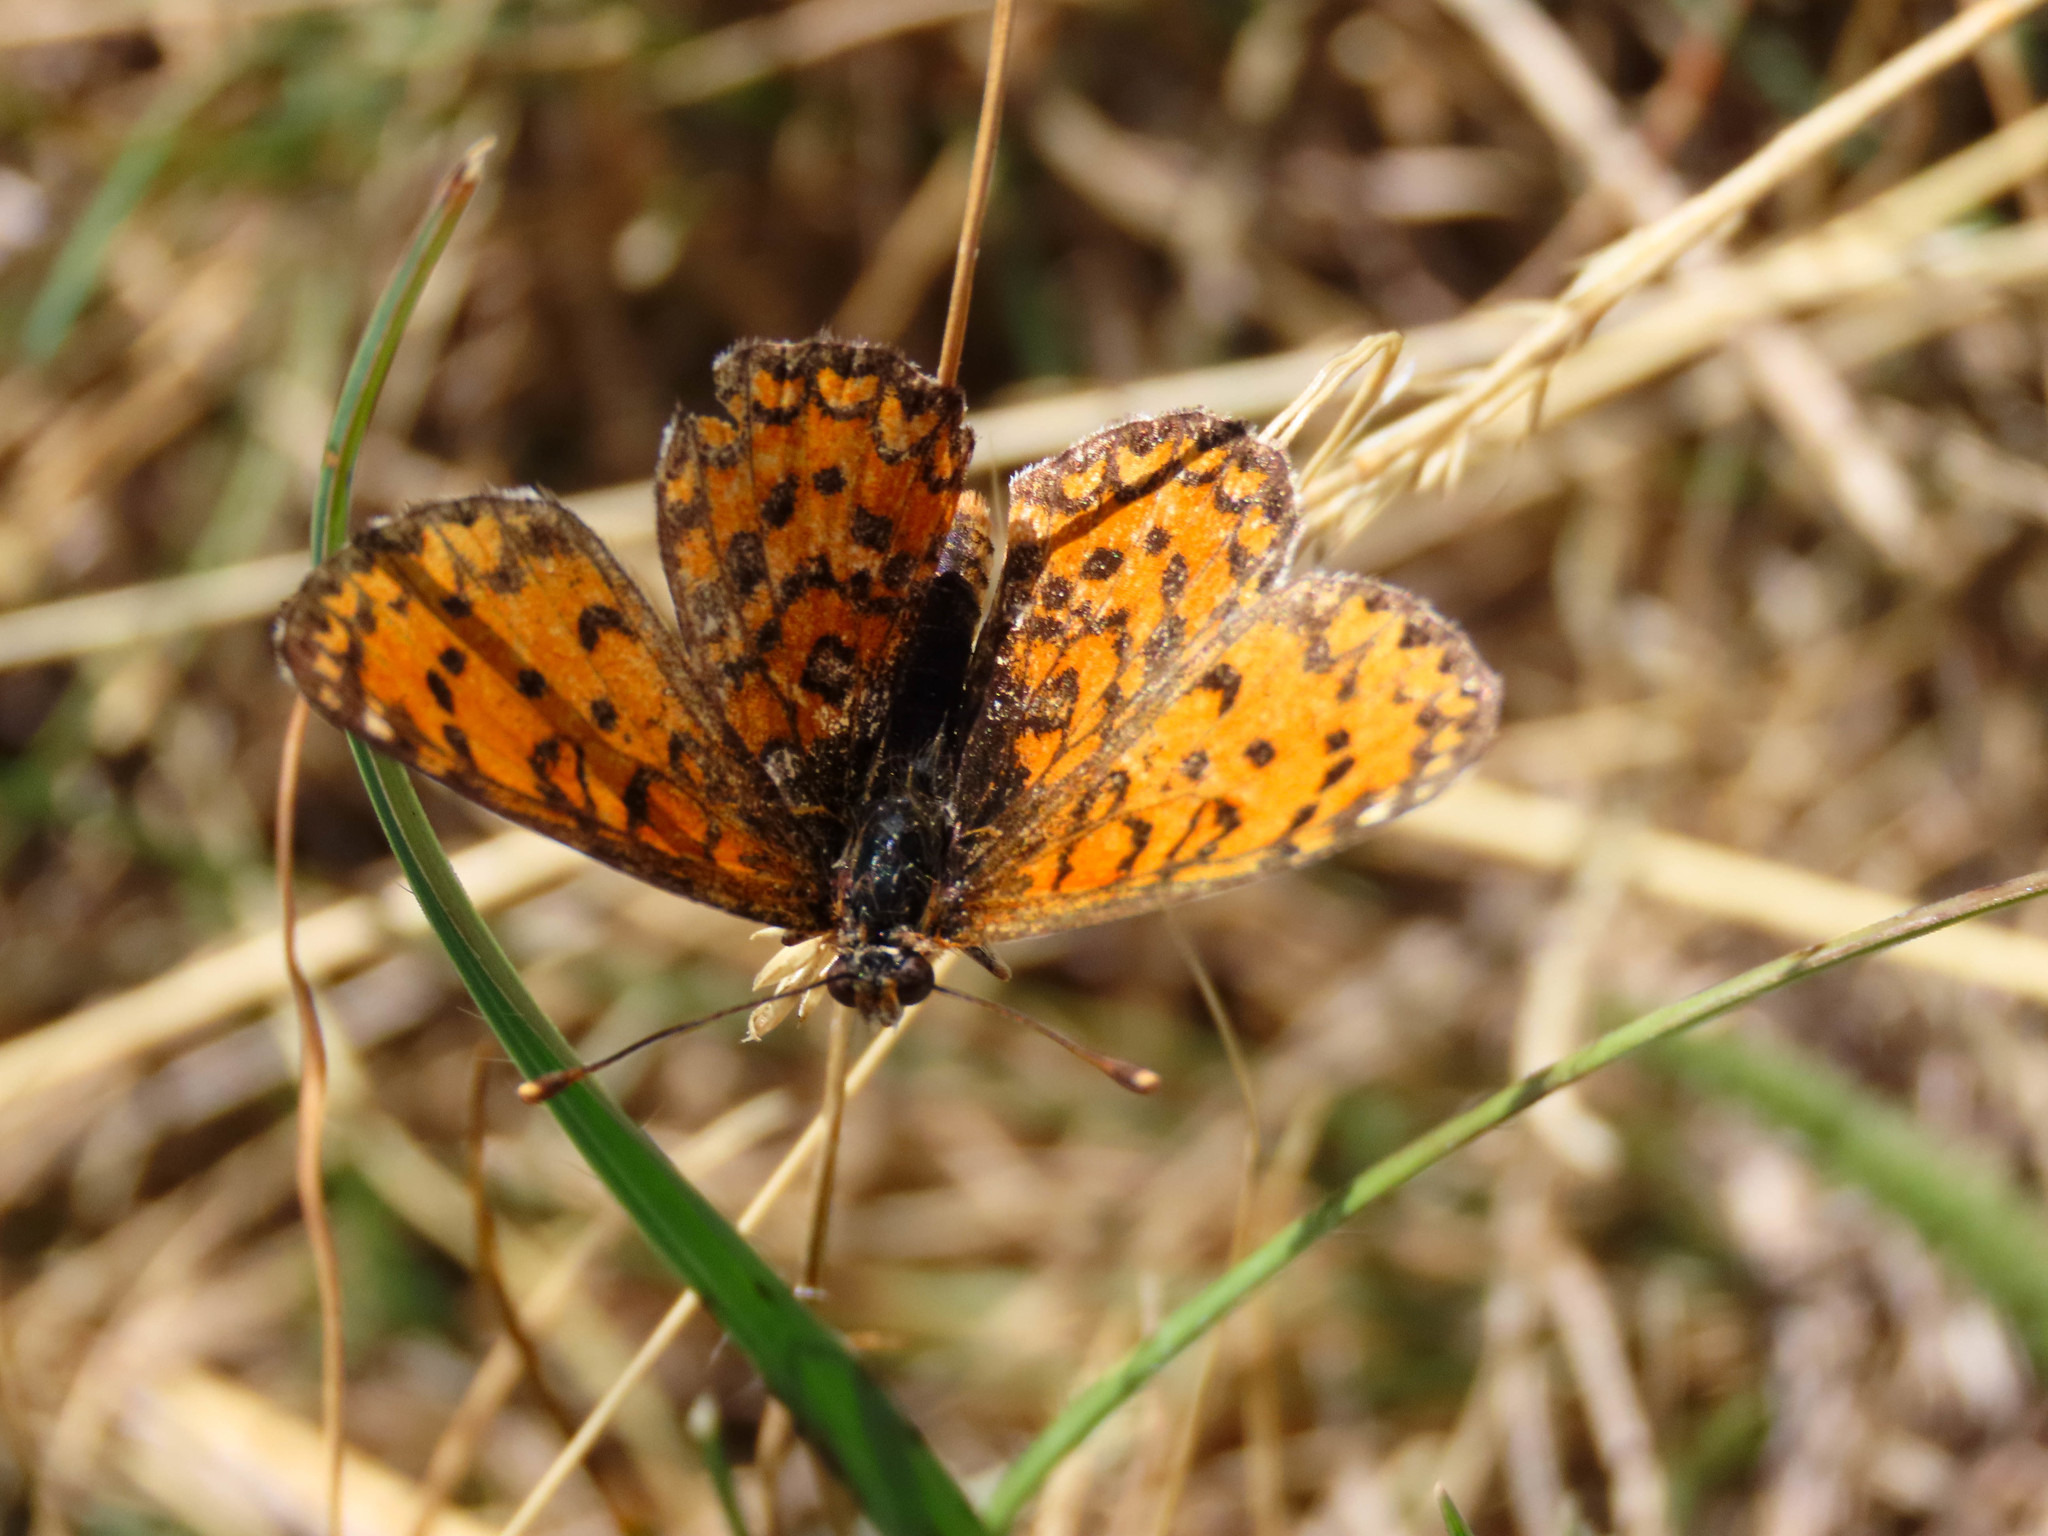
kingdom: Animalia
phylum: Arthropoda
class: Insecta
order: Lepidoptera
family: Nymphalidae
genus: Melitaea
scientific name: Melitaea trivia
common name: Lesser spotted fritillary
